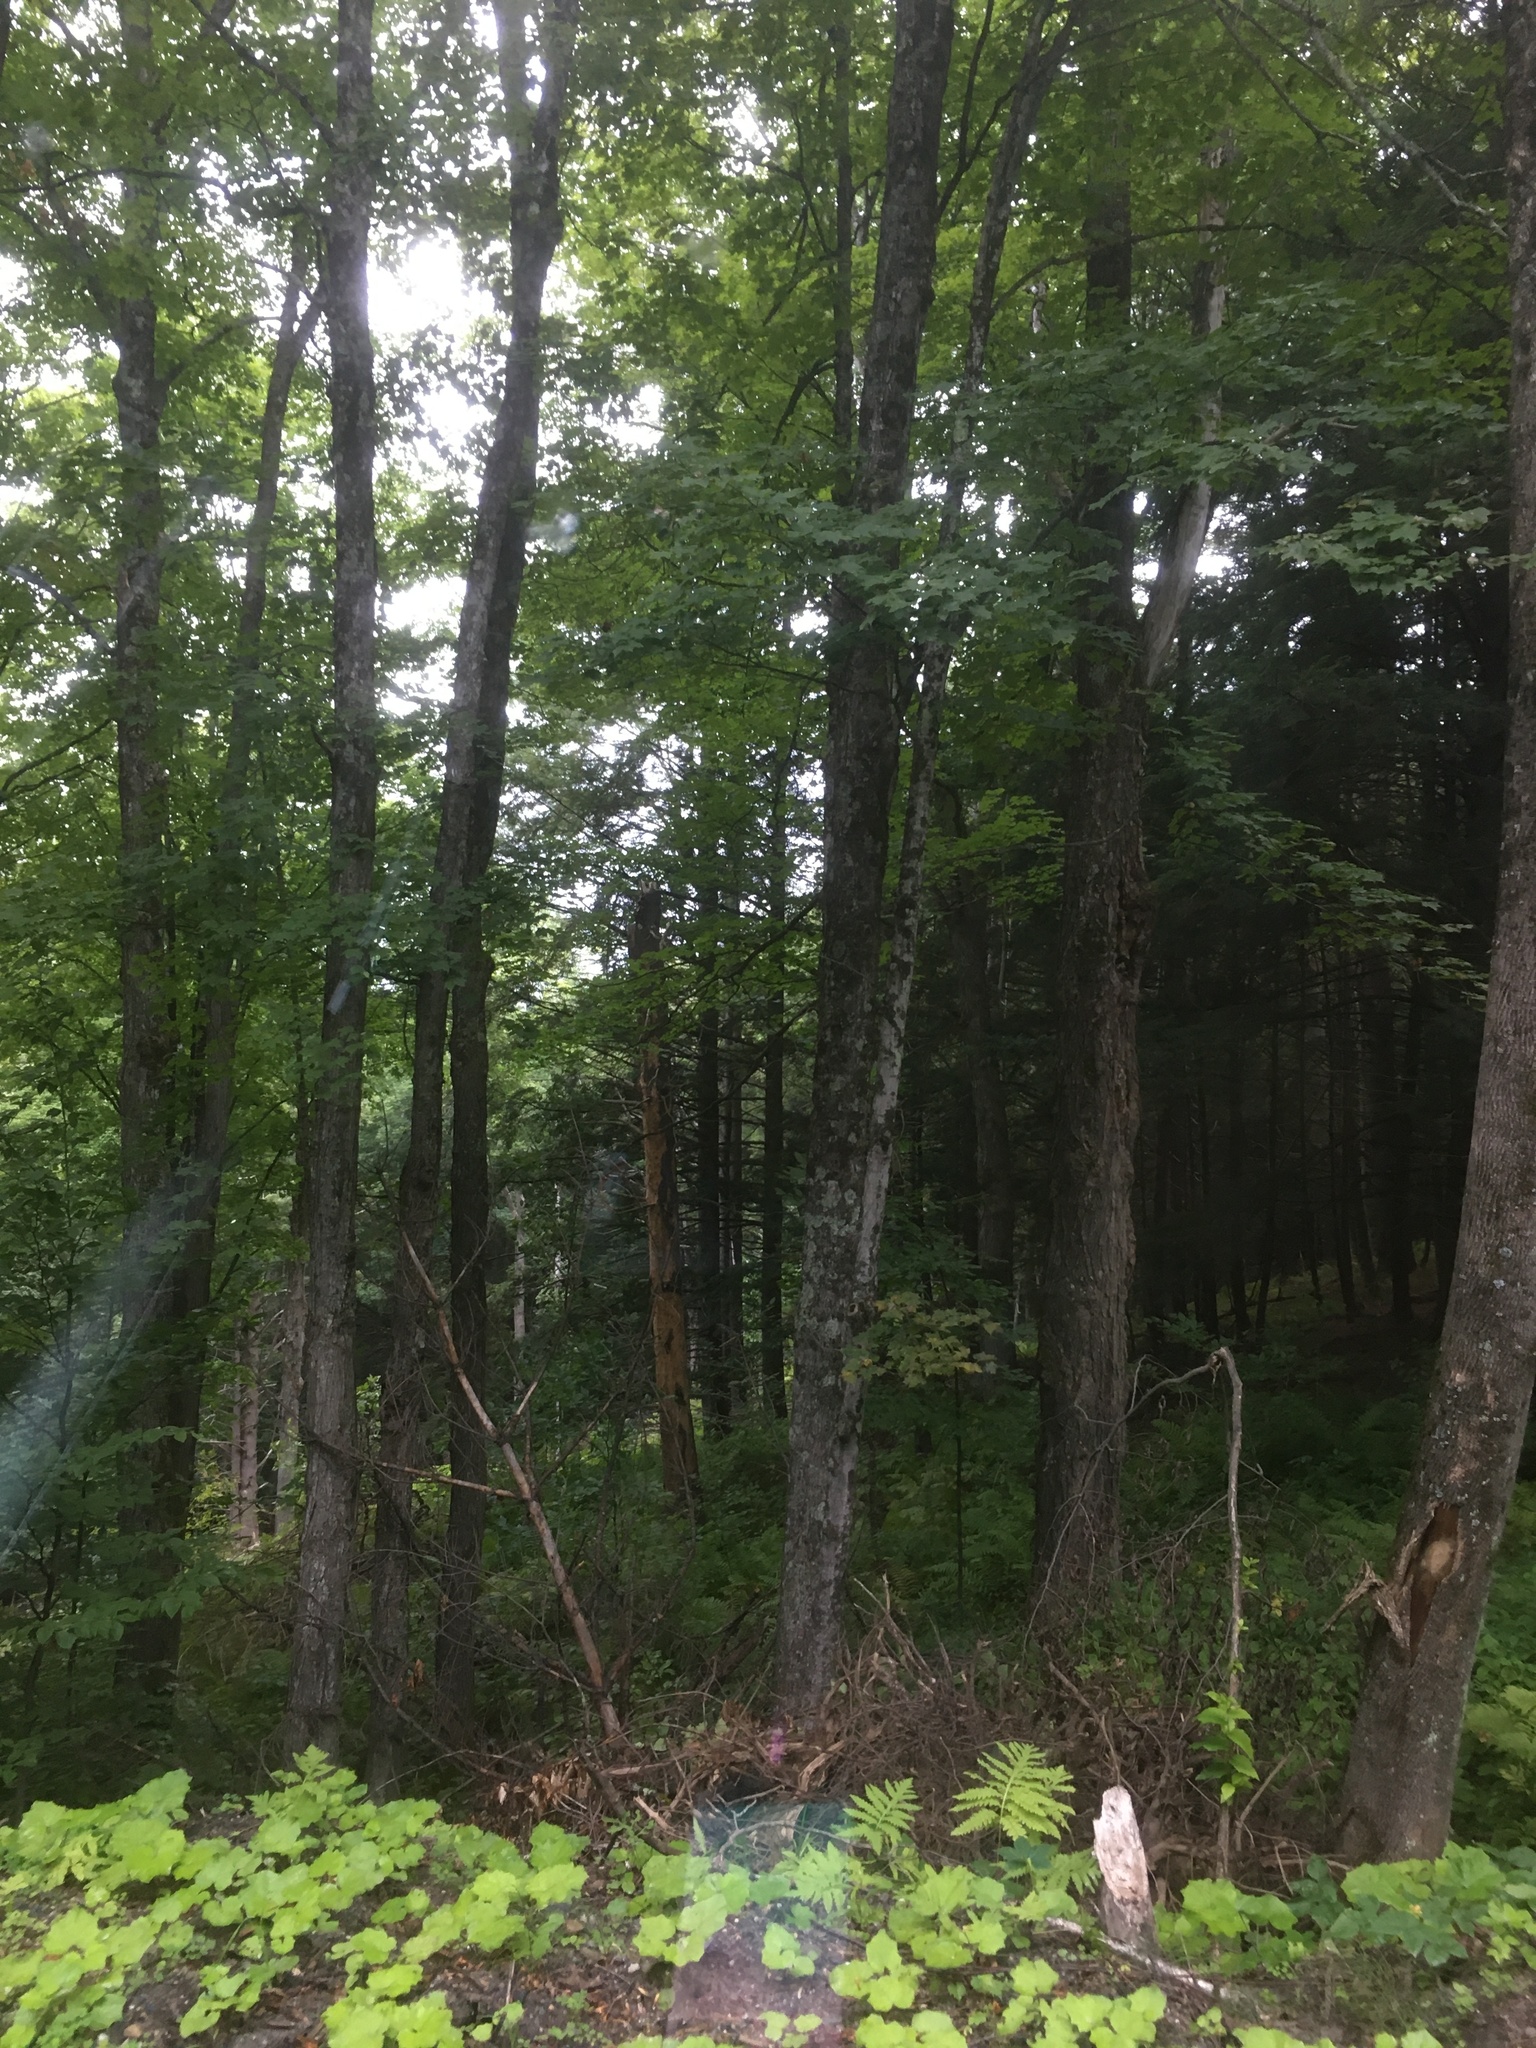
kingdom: Plantae
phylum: Tracheophyta
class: Magnoliopsida
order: Sapindales
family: Sapindaceae
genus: Acer
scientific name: Acer saccharum
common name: Sugar maple
